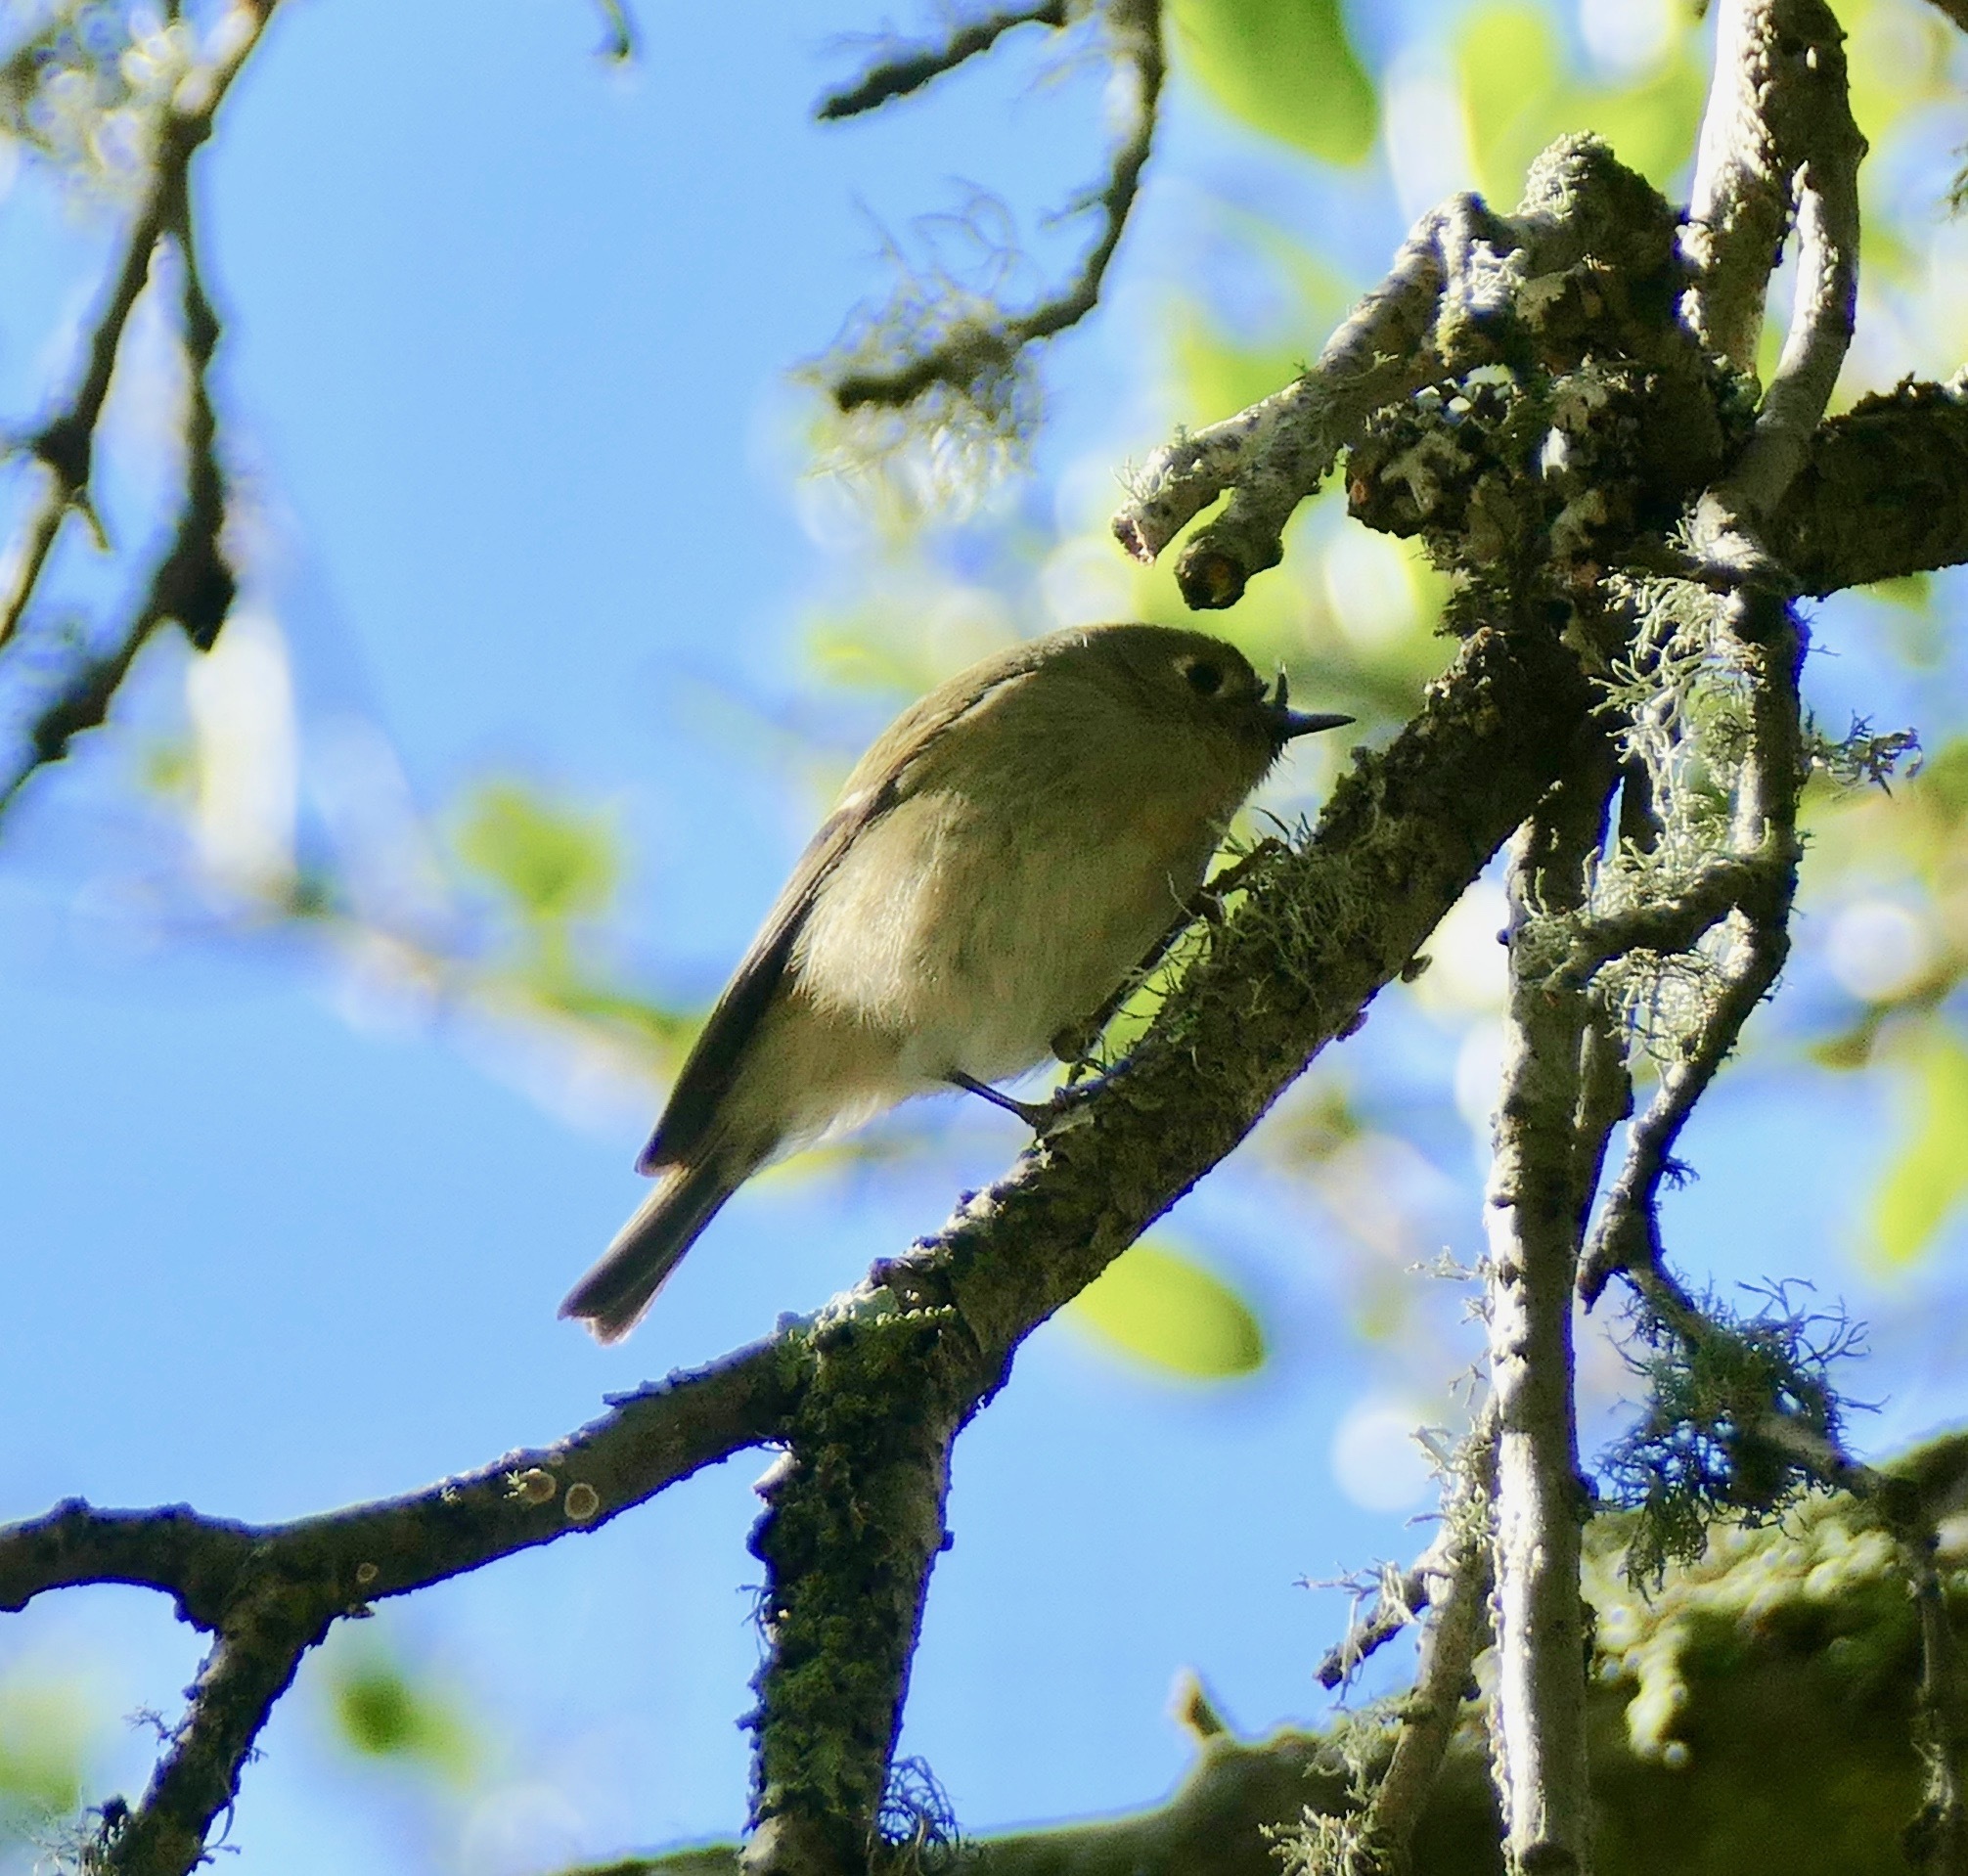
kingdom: Animalia
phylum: Chordata
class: Aves
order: Passeriformes
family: Regulidae
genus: Regulus
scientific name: Regulus calendula
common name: Ruby-crowned kinglet
